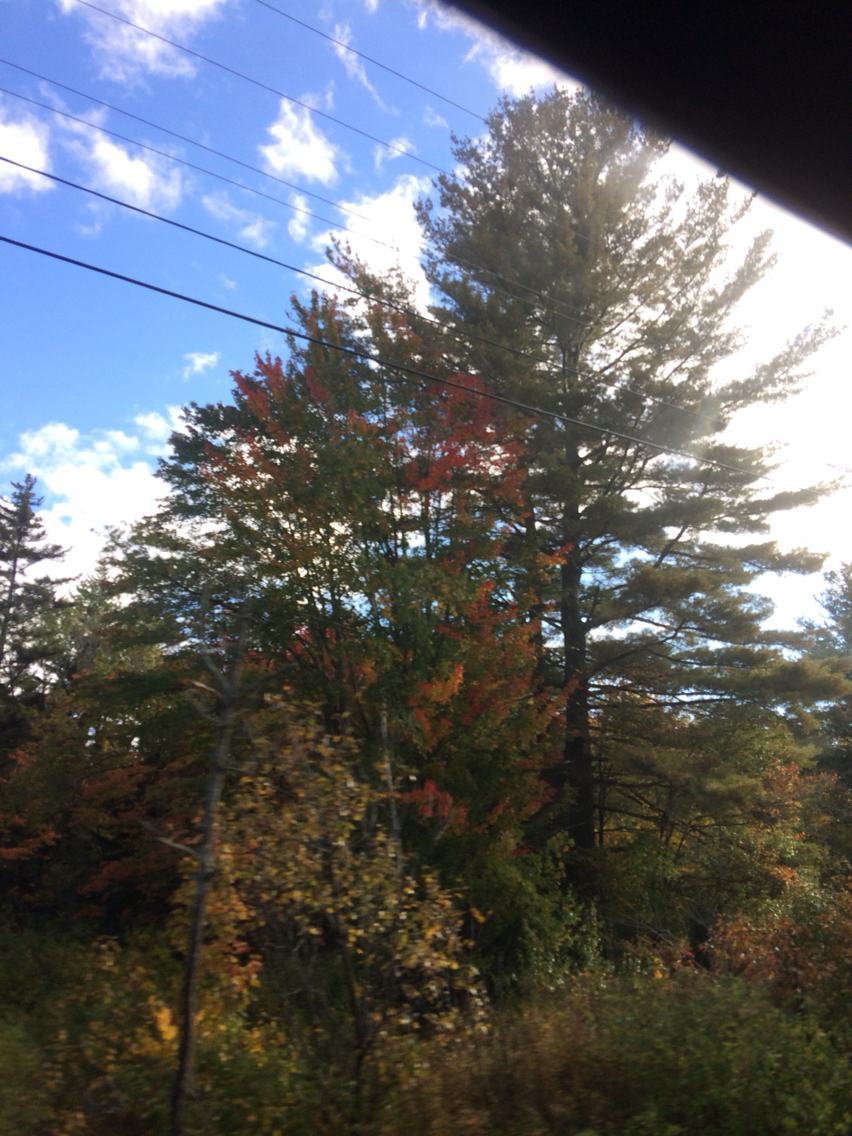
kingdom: Plantae
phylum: Tracheophyta
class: Pinopsida
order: Pinales
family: Pinaceae
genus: Pinus
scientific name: Pinus strobus
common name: Weymouth pine
